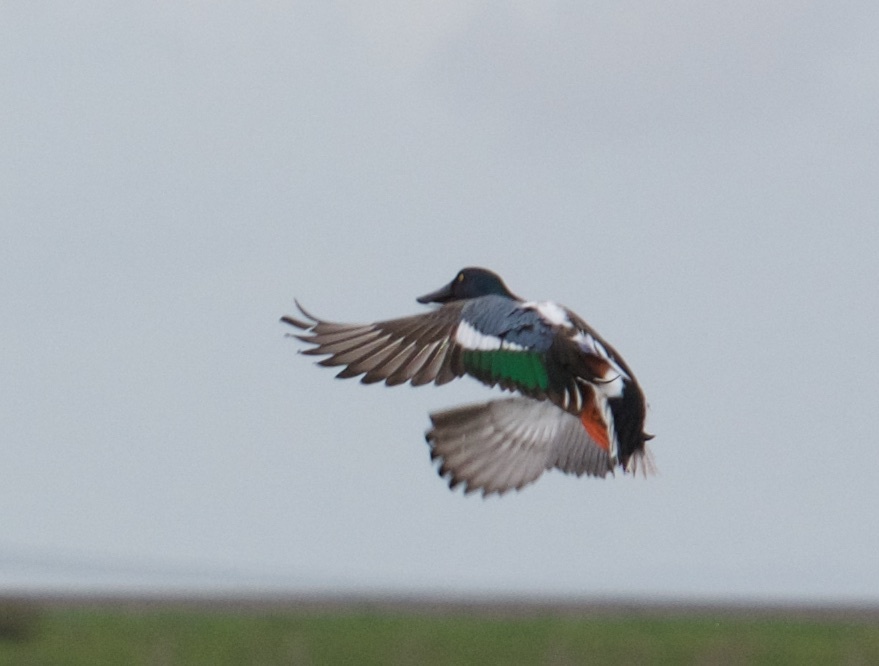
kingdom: Animalia
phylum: Chordata
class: Aves
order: Anseriformes
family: Anatidae
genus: Spatula
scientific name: Spatula clypeata
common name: Northern shoveler
